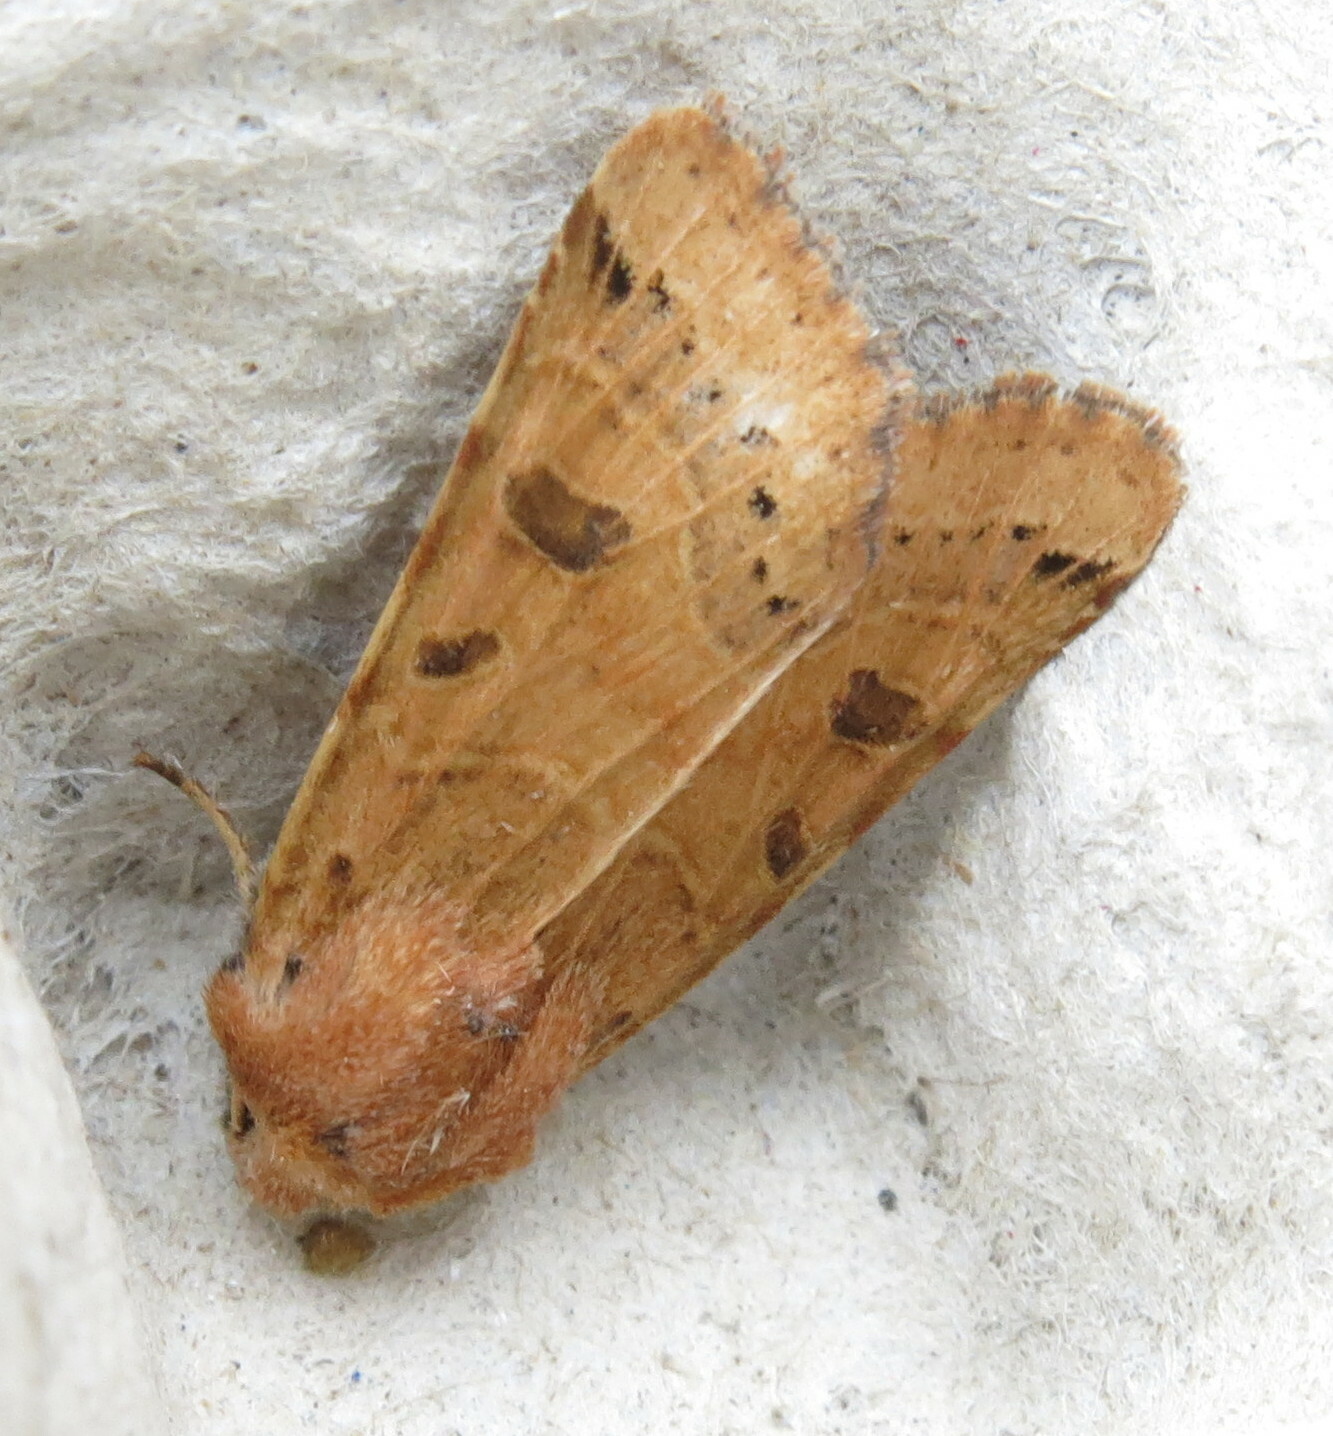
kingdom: Animalia
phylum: Arthropoda
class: Insecta
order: Lepidoptera
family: Noctuidae
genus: Agrochola
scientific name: Agrochola lunosa
